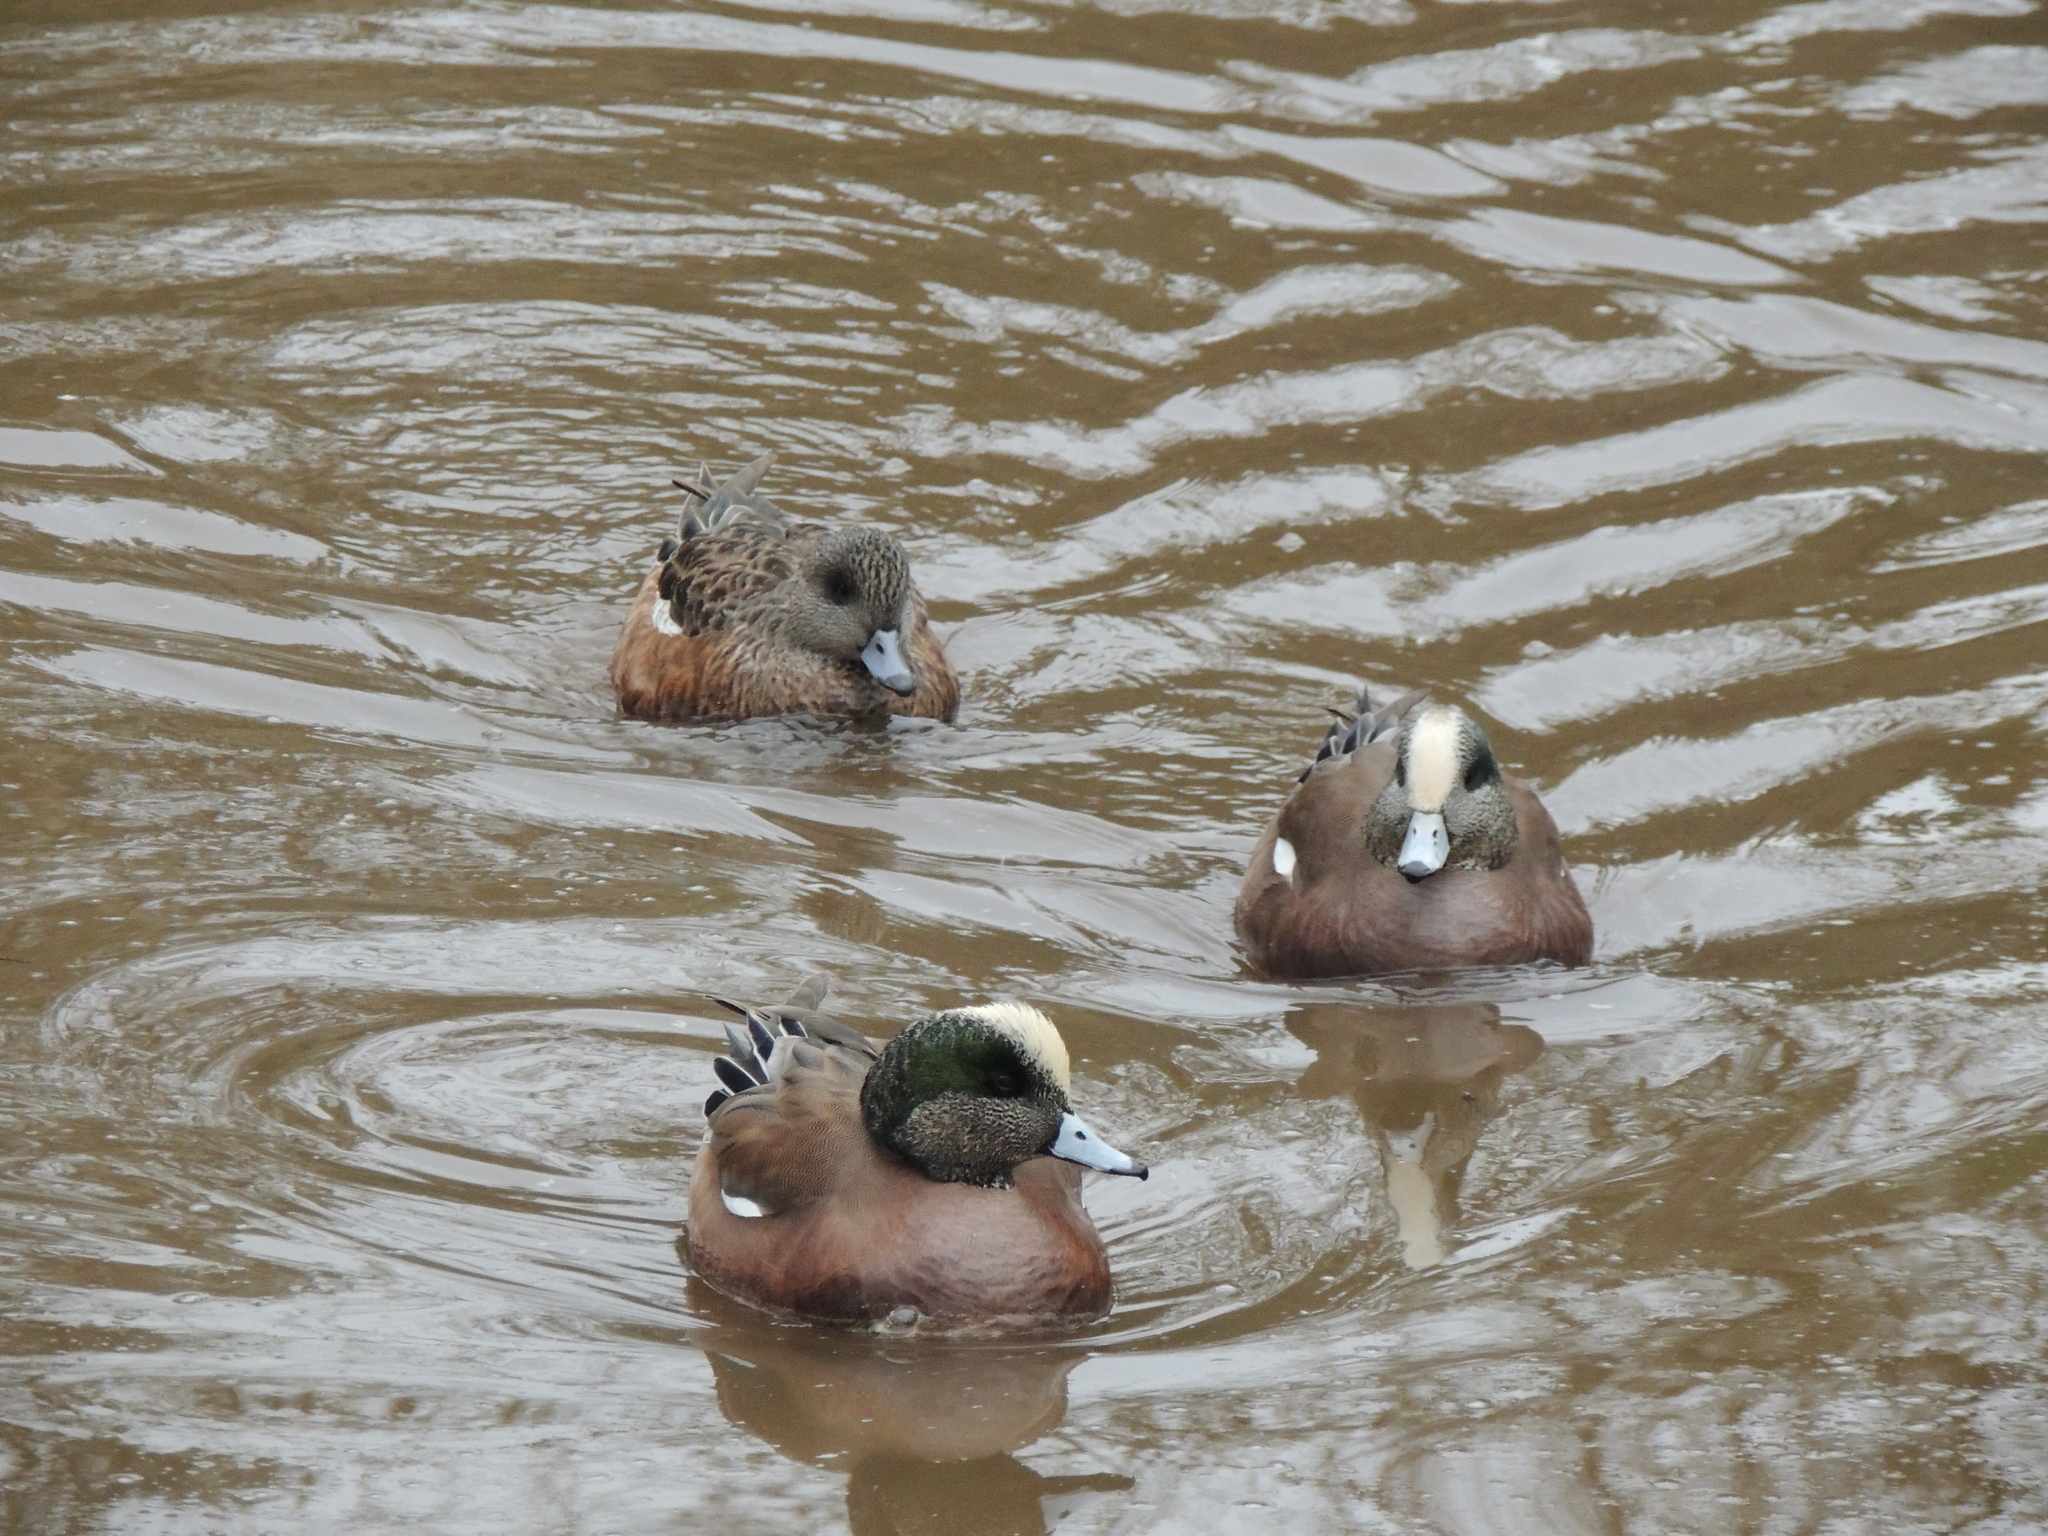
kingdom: Animalia
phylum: Chordata
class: Aves
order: Anseriformes
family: Anatidae
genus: Mareca
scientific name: Mareca americana
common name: American wigeon
